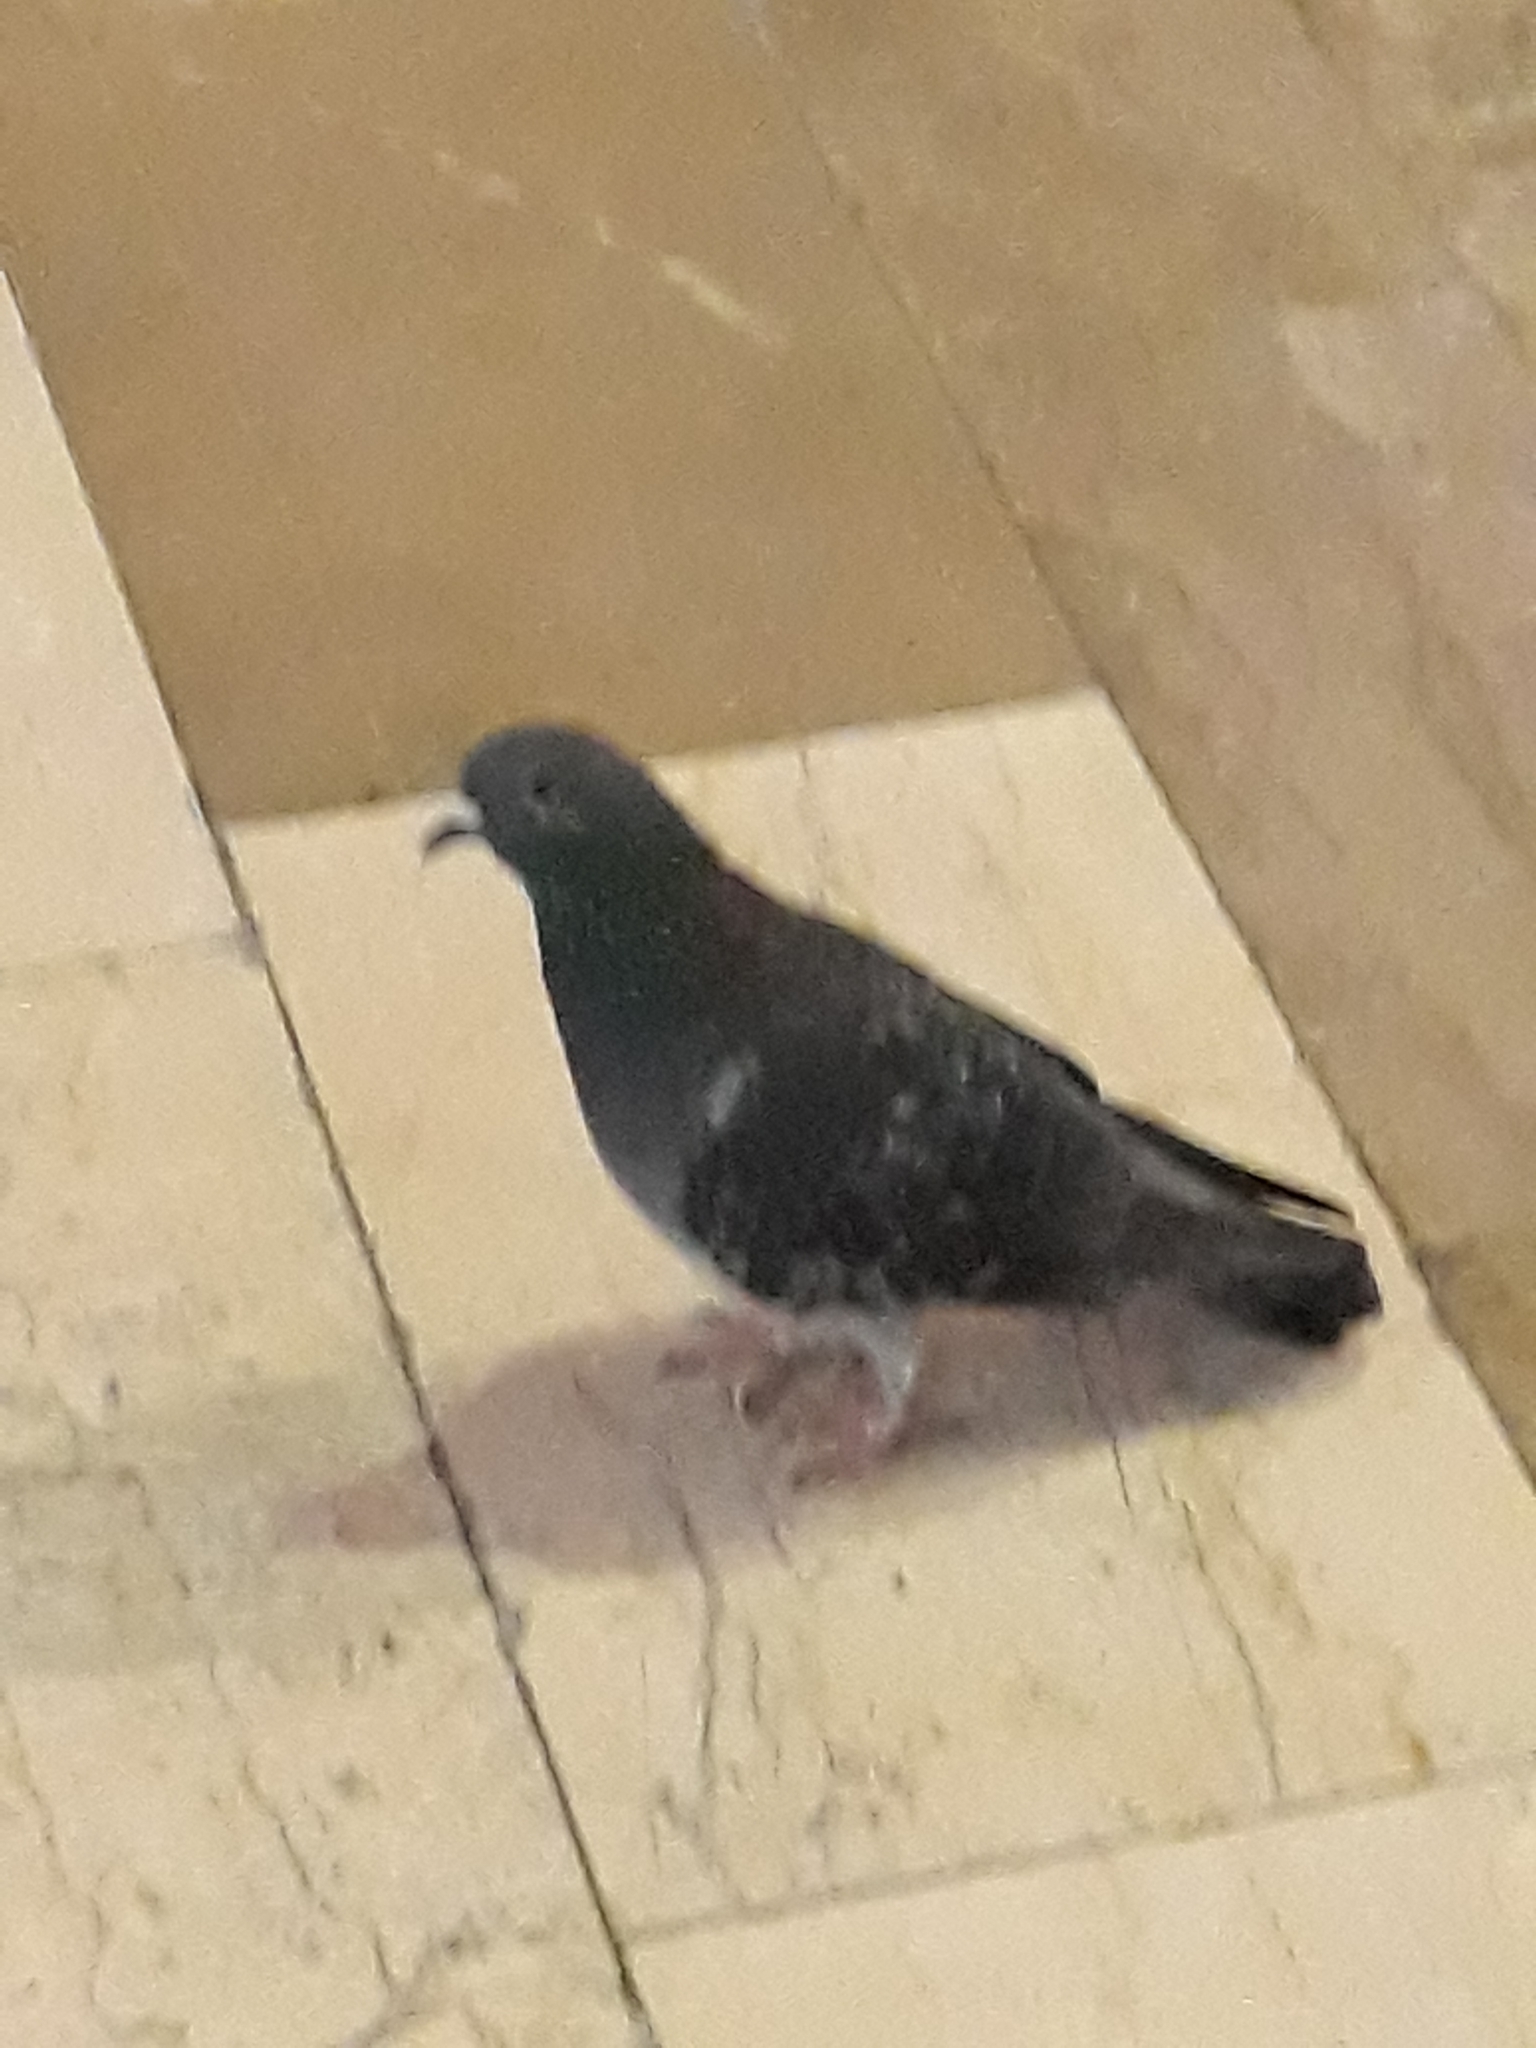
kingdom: Animalia
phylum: Chordata
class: Aves
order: Columbiformes
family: Columbidae
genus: Columba
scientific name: Columba livia
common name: Rock pigeon
